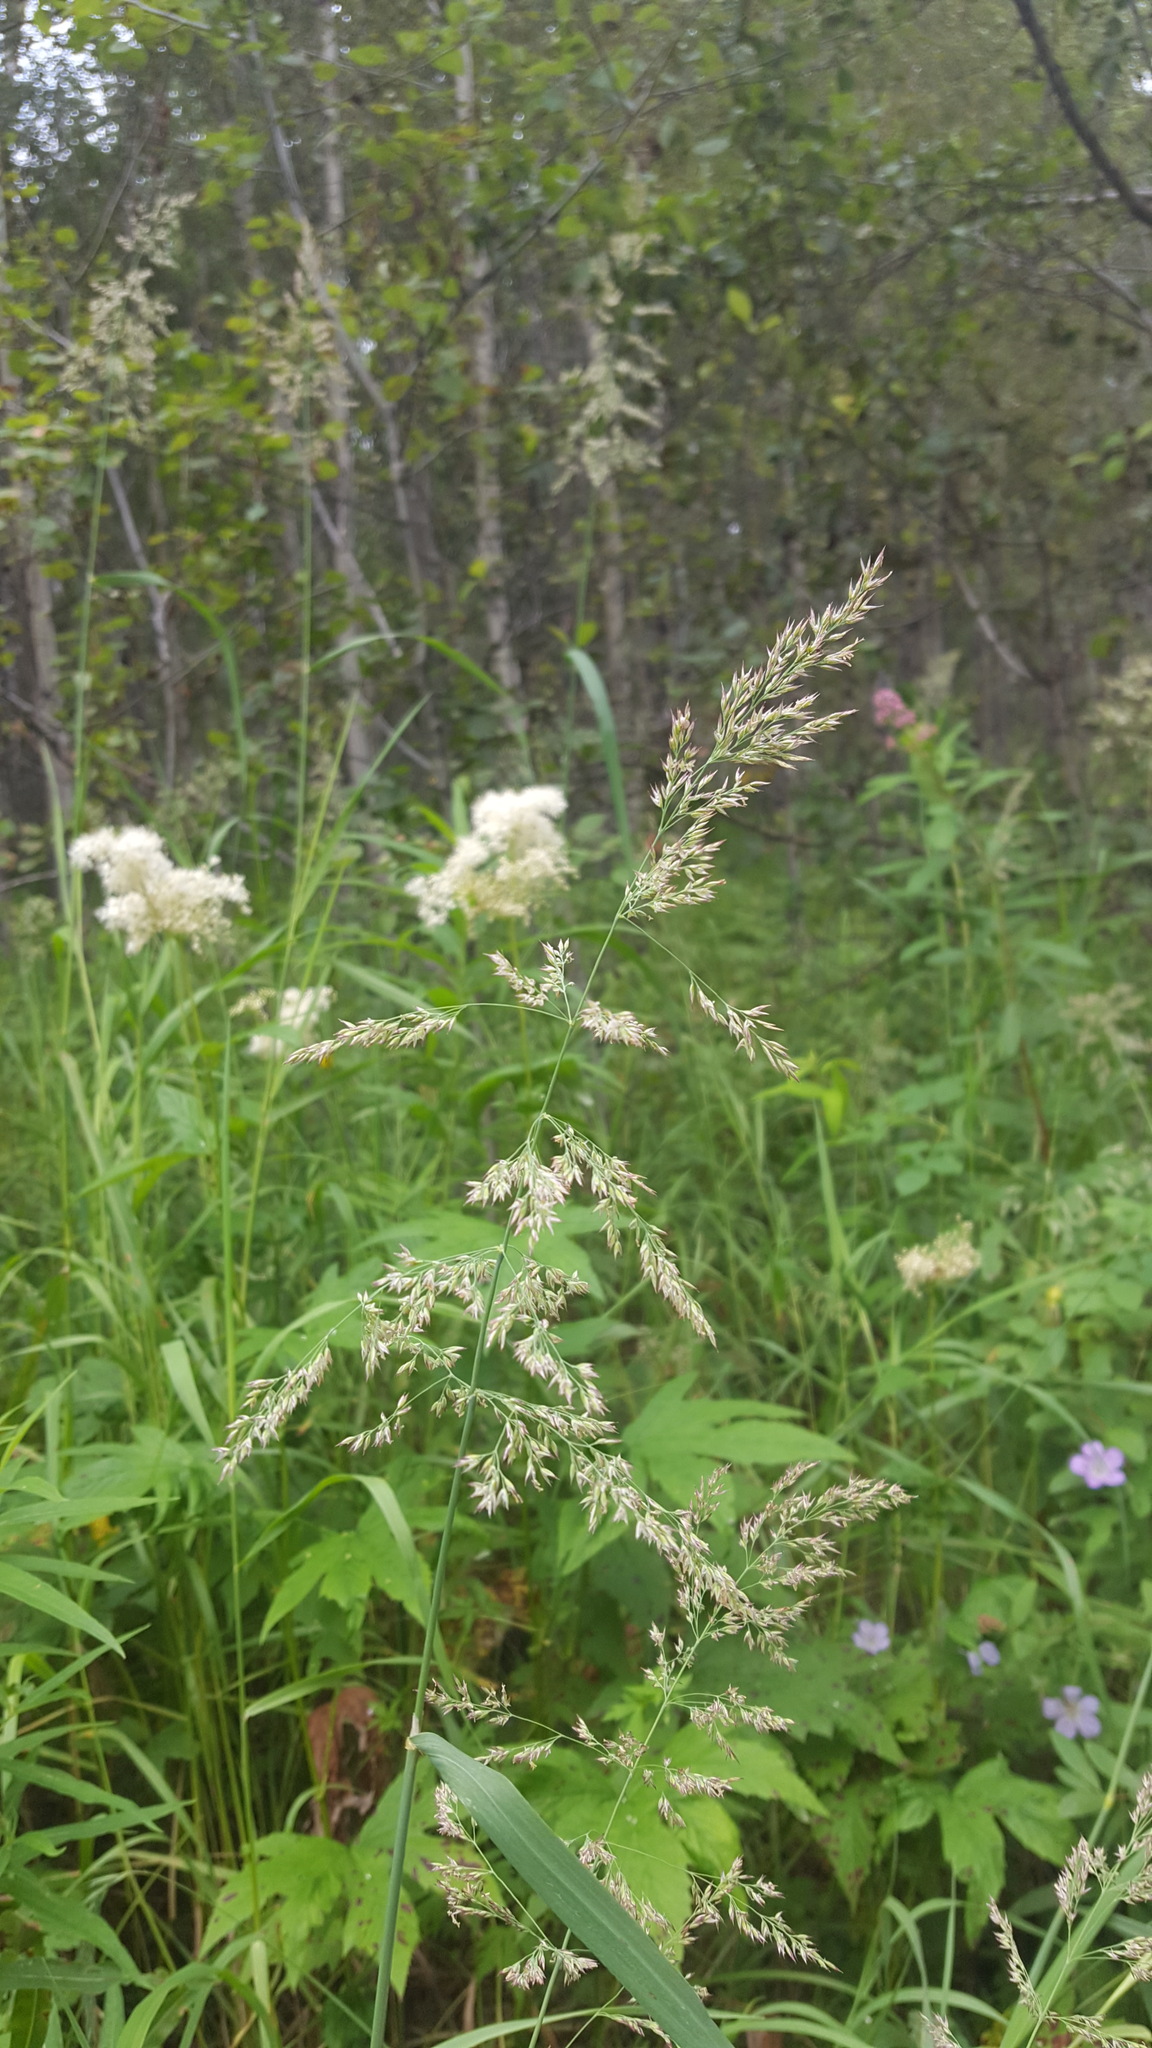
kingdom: Plantae
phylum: Tracheophyta
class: Liliopsida
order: Poales
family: Poaceae
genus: Calamagrostis
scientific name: Calamagrostis purpurea
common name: Scandinavian small-reed
